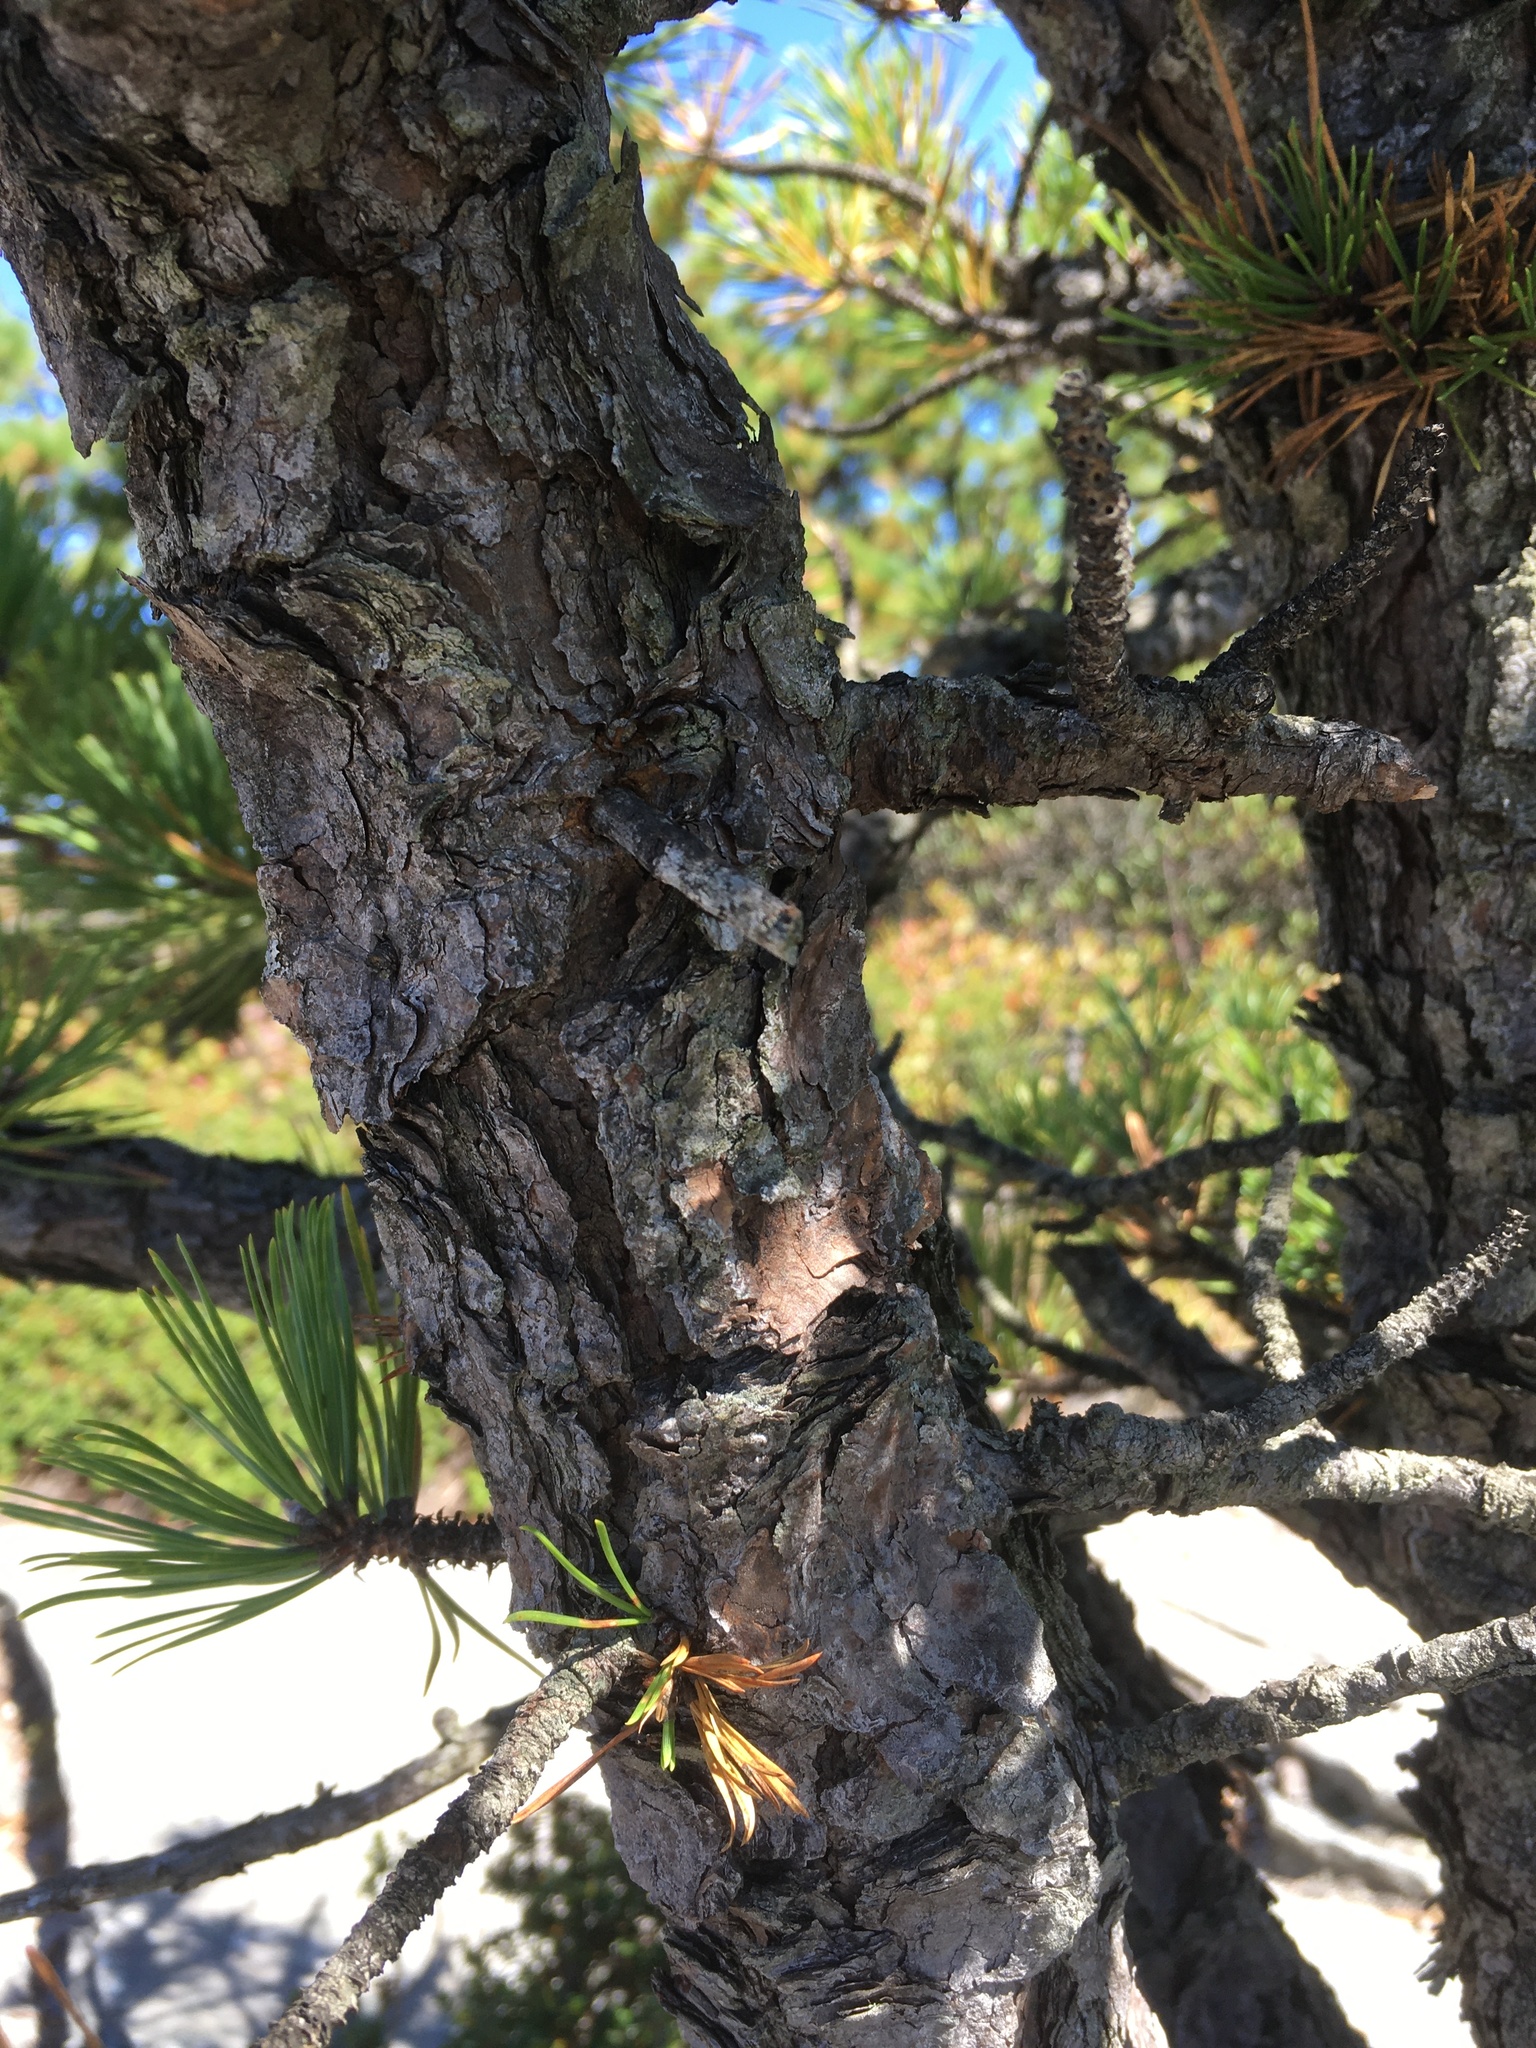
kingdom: Plantae
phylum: Tracheophyta
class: Pinopsida
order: Pinales
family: Pinaceae
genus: Pinus
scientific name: Pinus rigida
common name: Pitch pine
